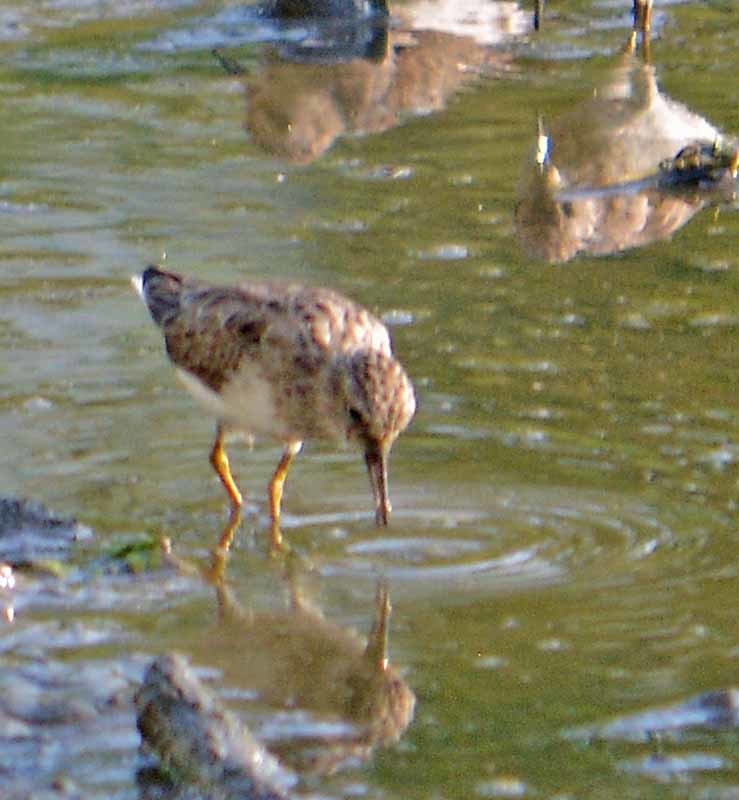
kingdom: Animalia
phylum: Chordata
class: Aves
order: Charadriiformes
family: Scolopacidae
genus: Calidris
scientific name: Calidris minutilla
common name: Least sandpiper
